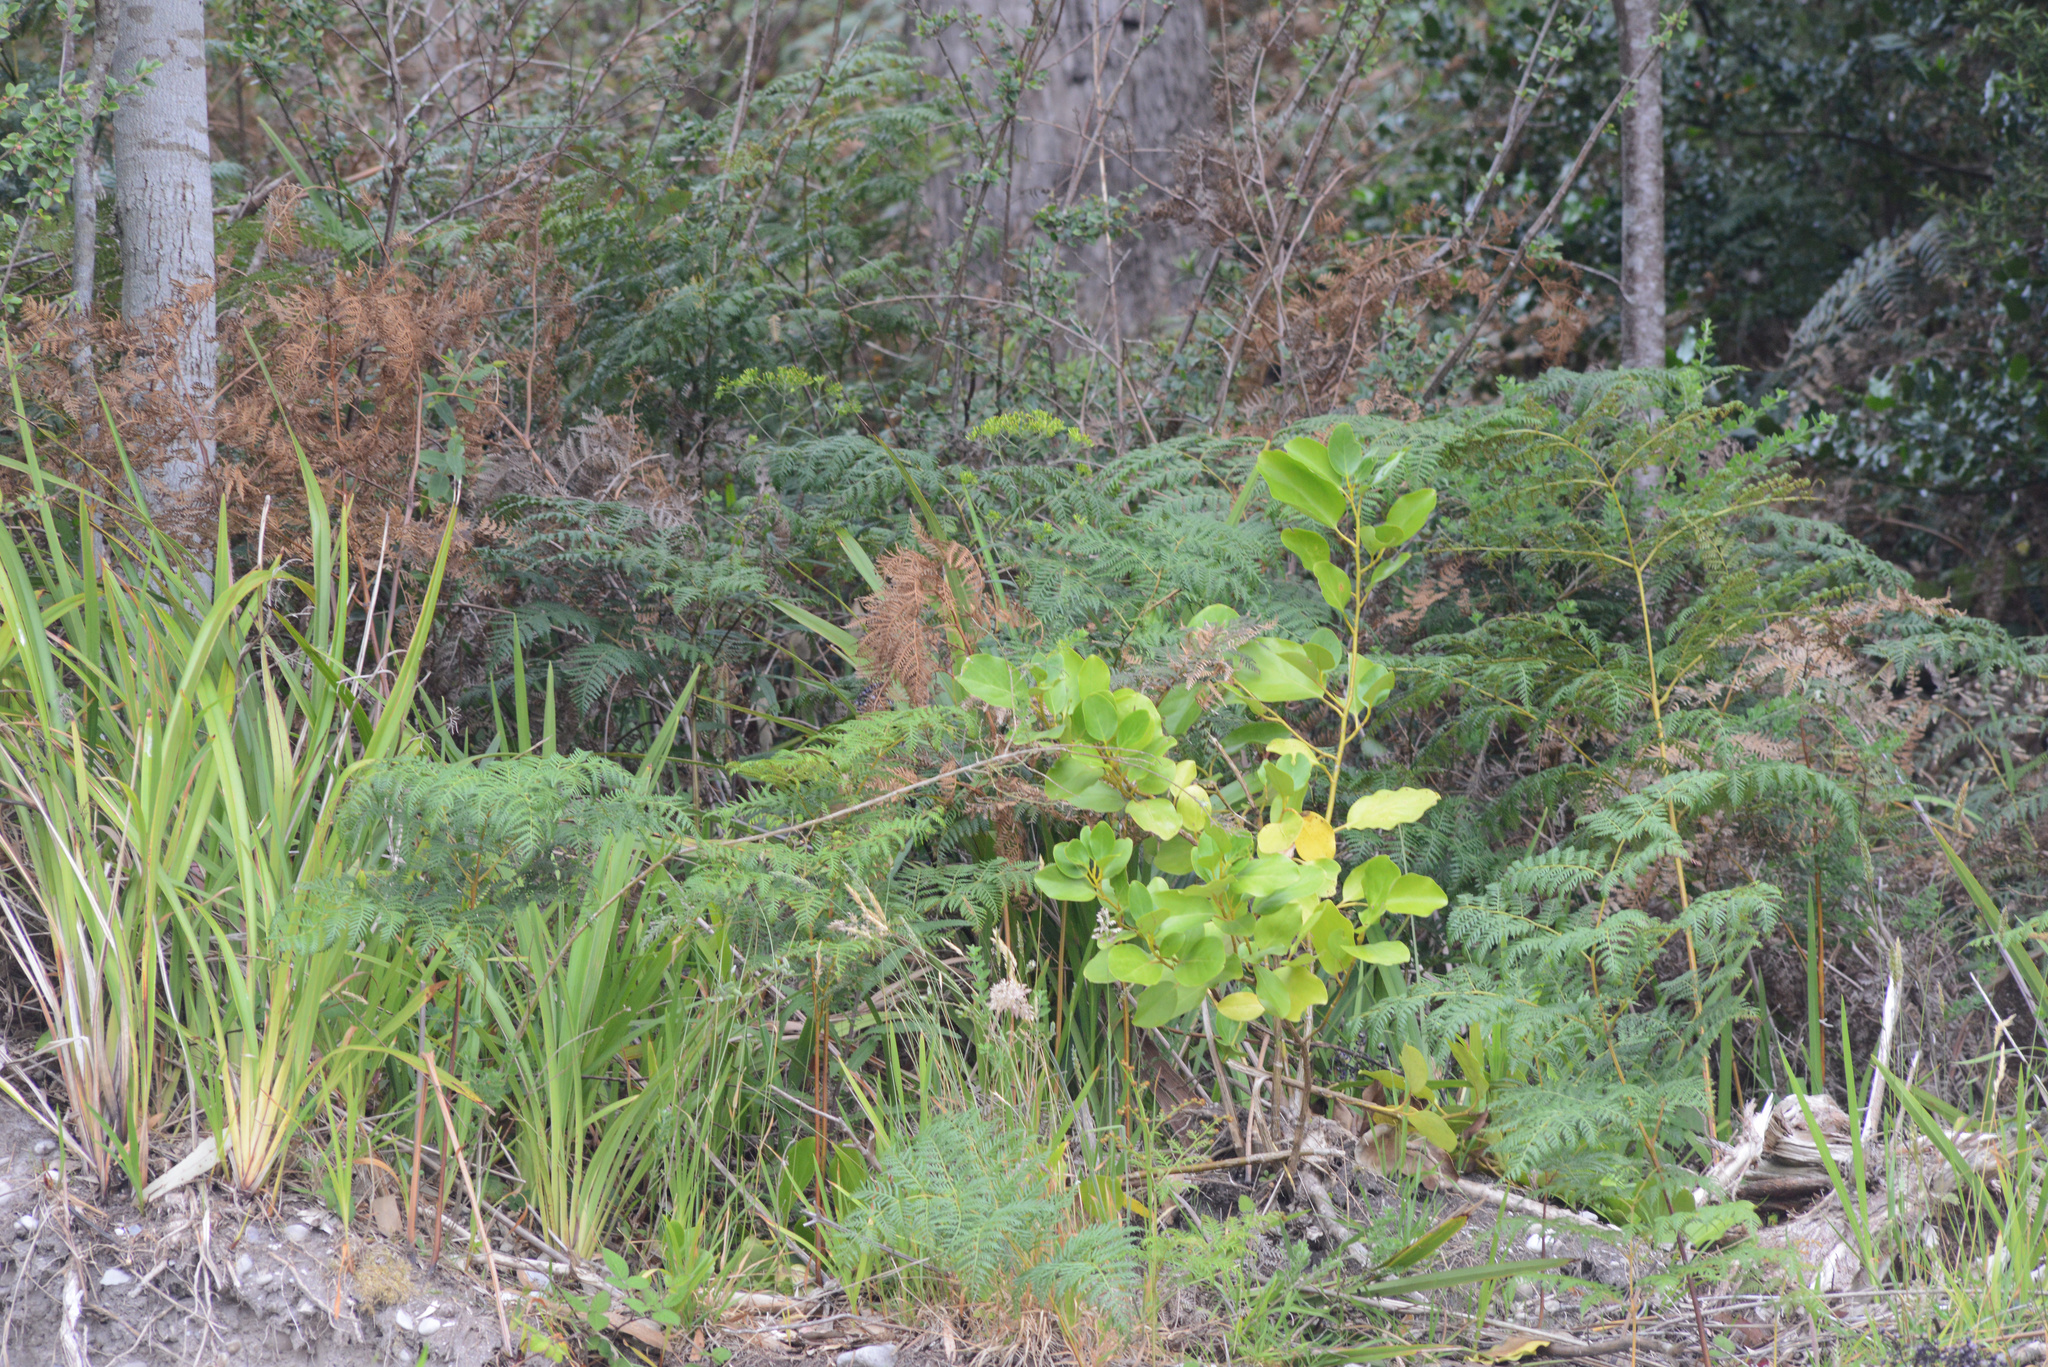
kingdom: Plantae
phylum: Tracheophyta
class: Magnoliopsida
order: Apiales
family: Griseliniaceae
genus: Griselinia
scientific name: Griselinia littoralis
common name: New zealand broadleaf
